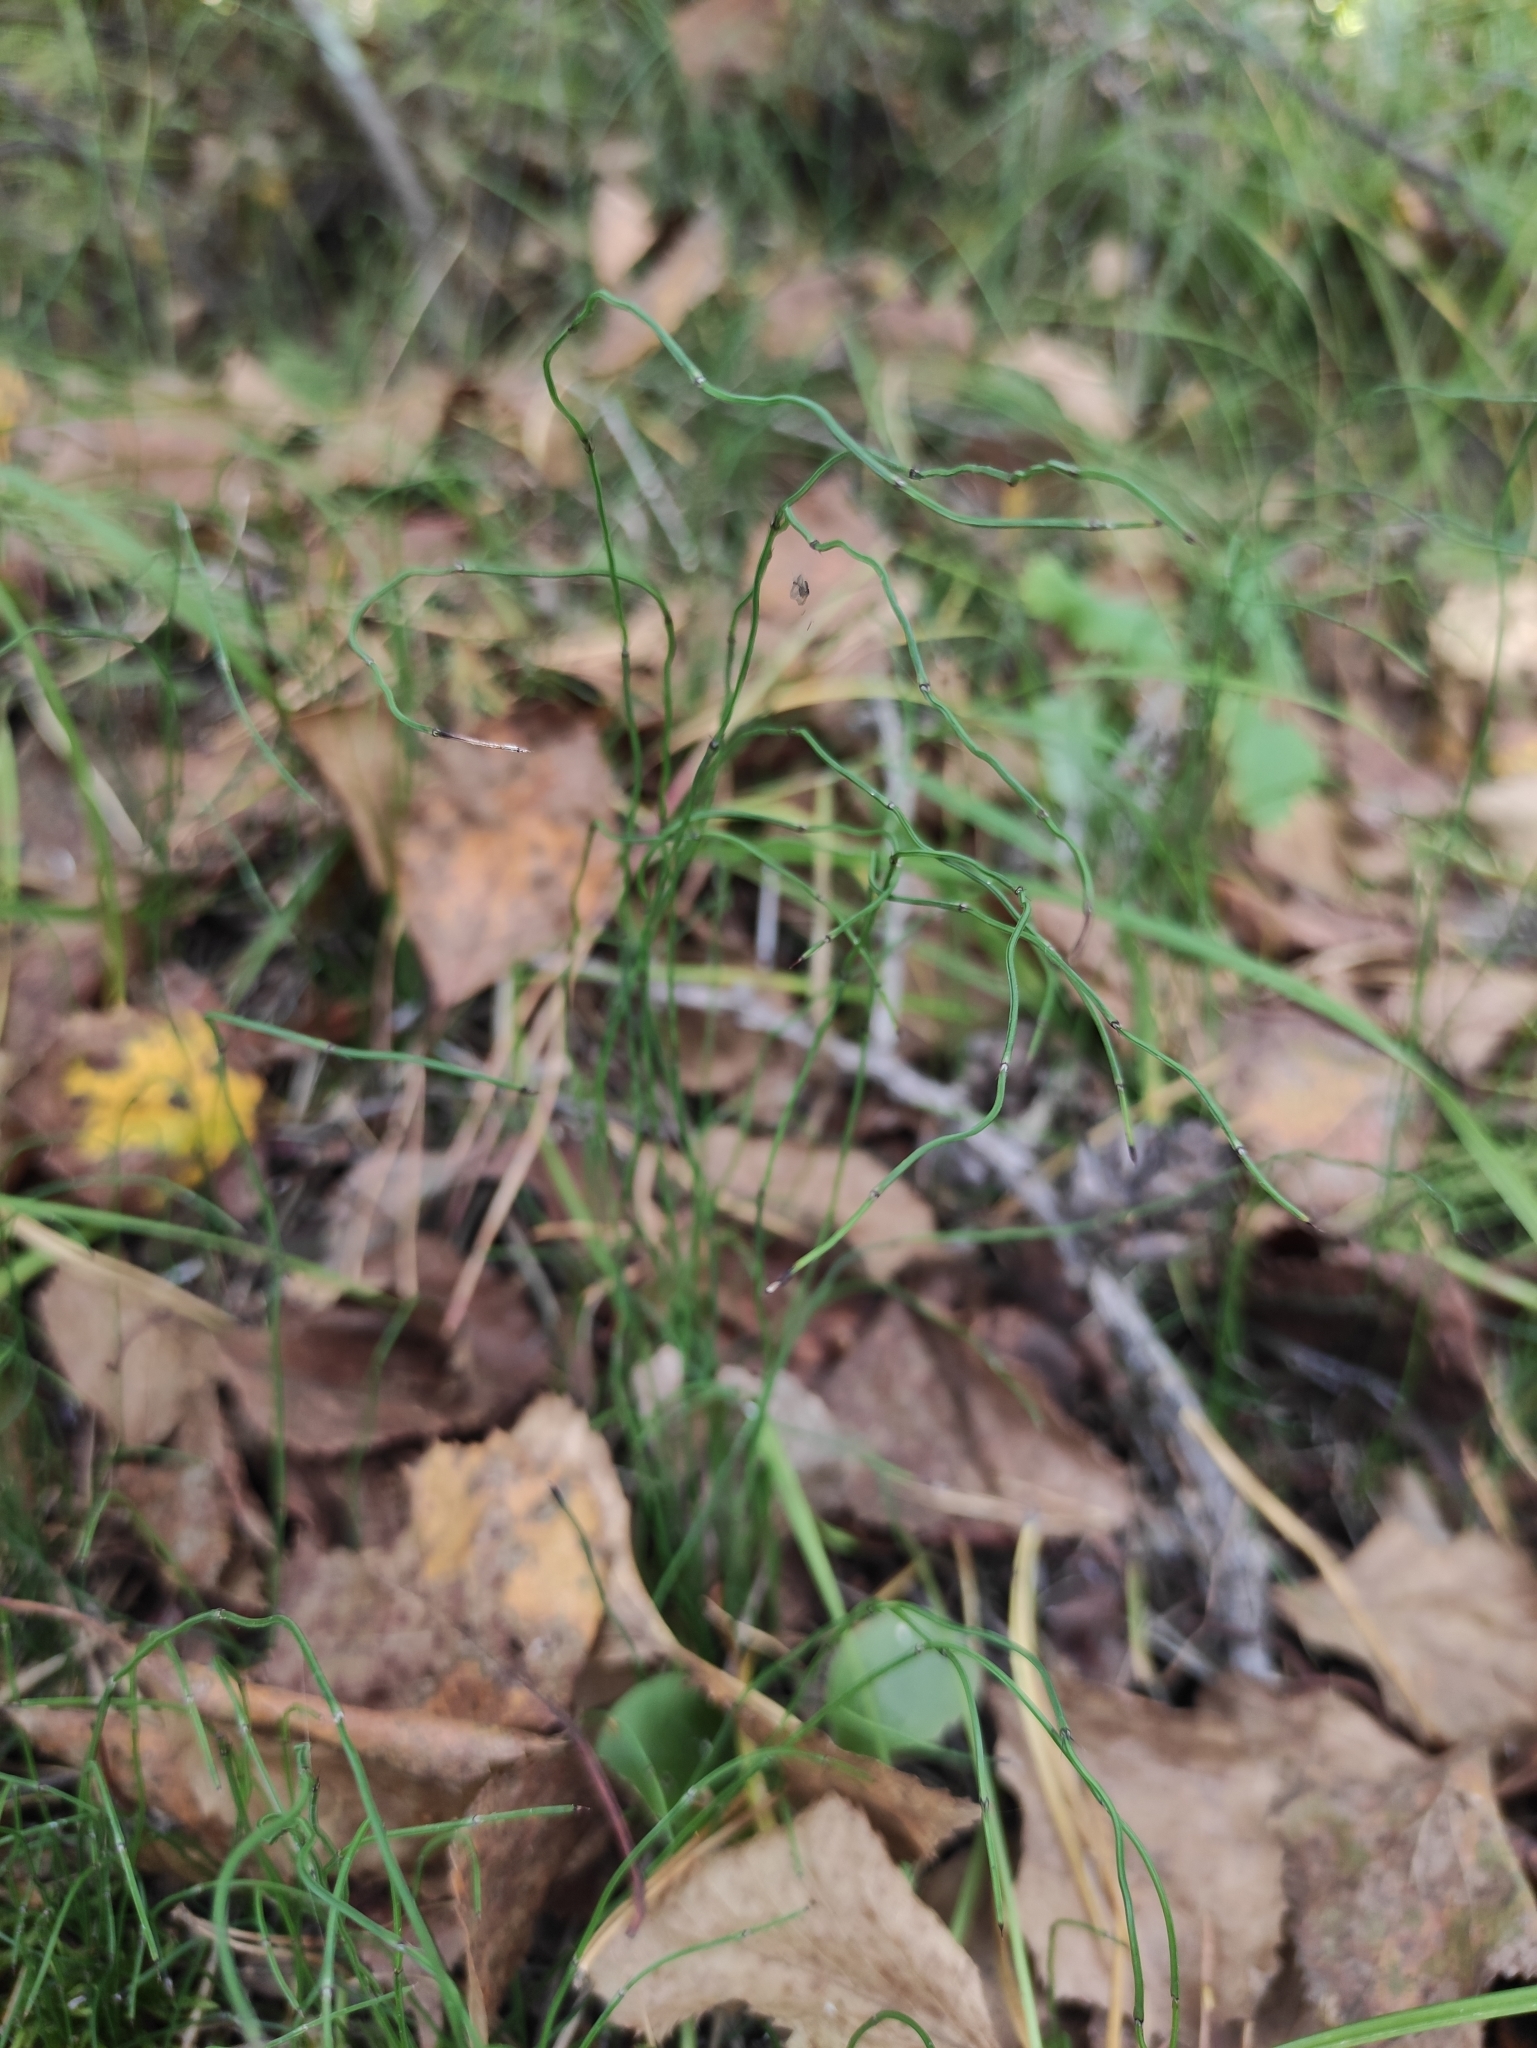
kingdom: Plantae
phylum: Tracheophyta
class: Polypodiopsida
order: Equisetales
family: Equisetaceae
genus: Equisetum
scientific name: Equisetum scirpoides
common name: Delicate horsetail
